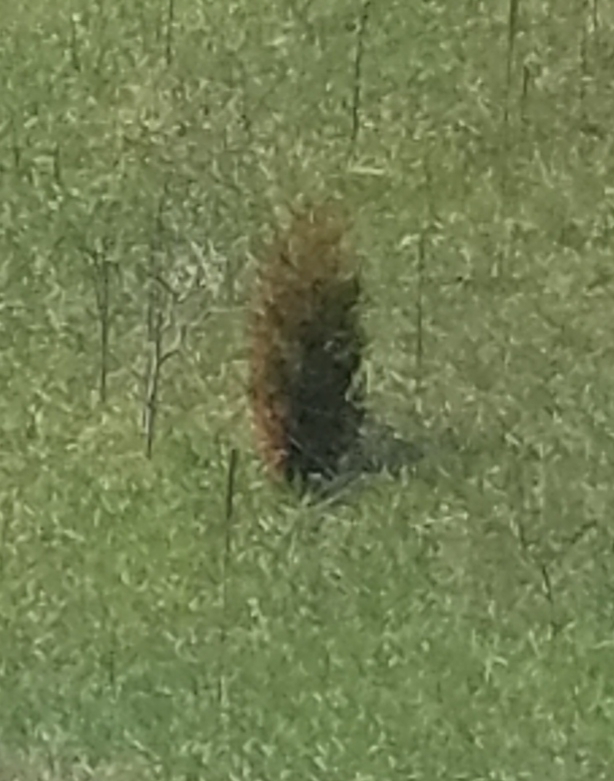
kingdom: Plantae
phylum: Tracheophyta
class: Pinopsida
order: Pinales
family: Cupressaceae
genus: Juniperus
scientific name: Juniperus virginiana
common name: Red juniper
